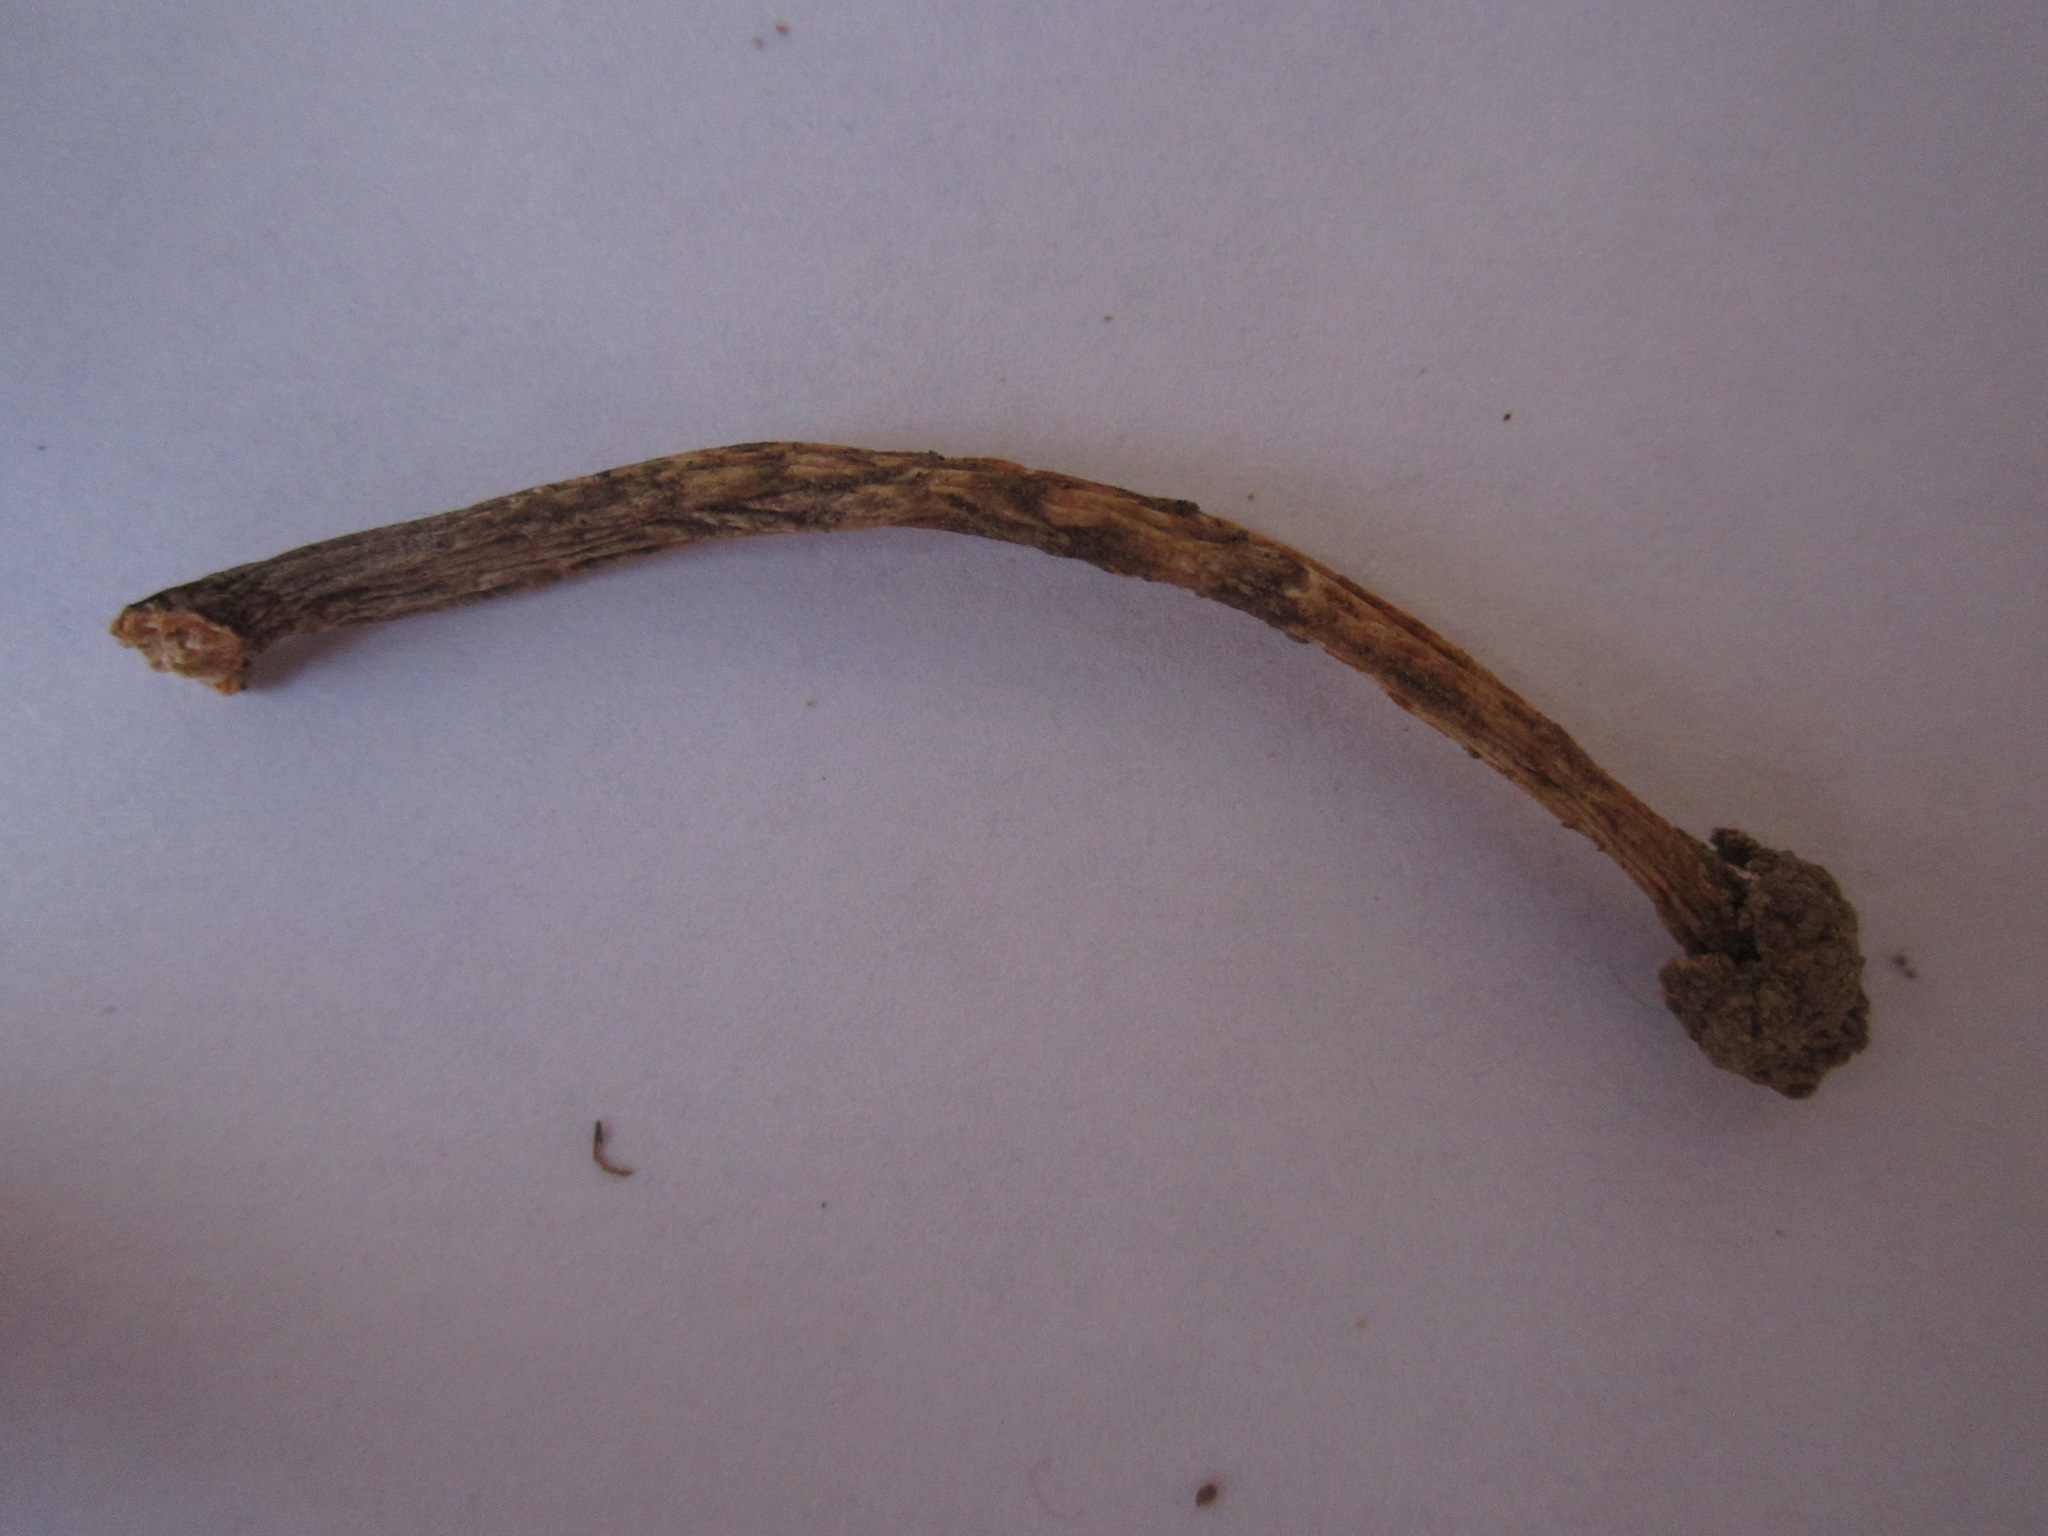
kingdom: Fungi
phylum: Basidiomycota
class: Agaricomycetes
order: Agaricales
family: Amanitaceae
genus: Amanita
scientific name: Amanita protecta
